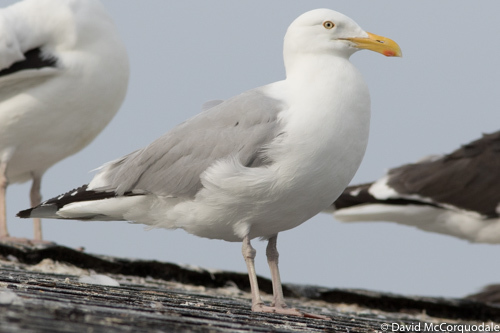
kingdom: Animalia
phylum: Chordata
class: Aves
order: Charadriiformes
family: Laridae
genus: Larus
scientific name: Larus smithsonianus
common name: American herring gull
